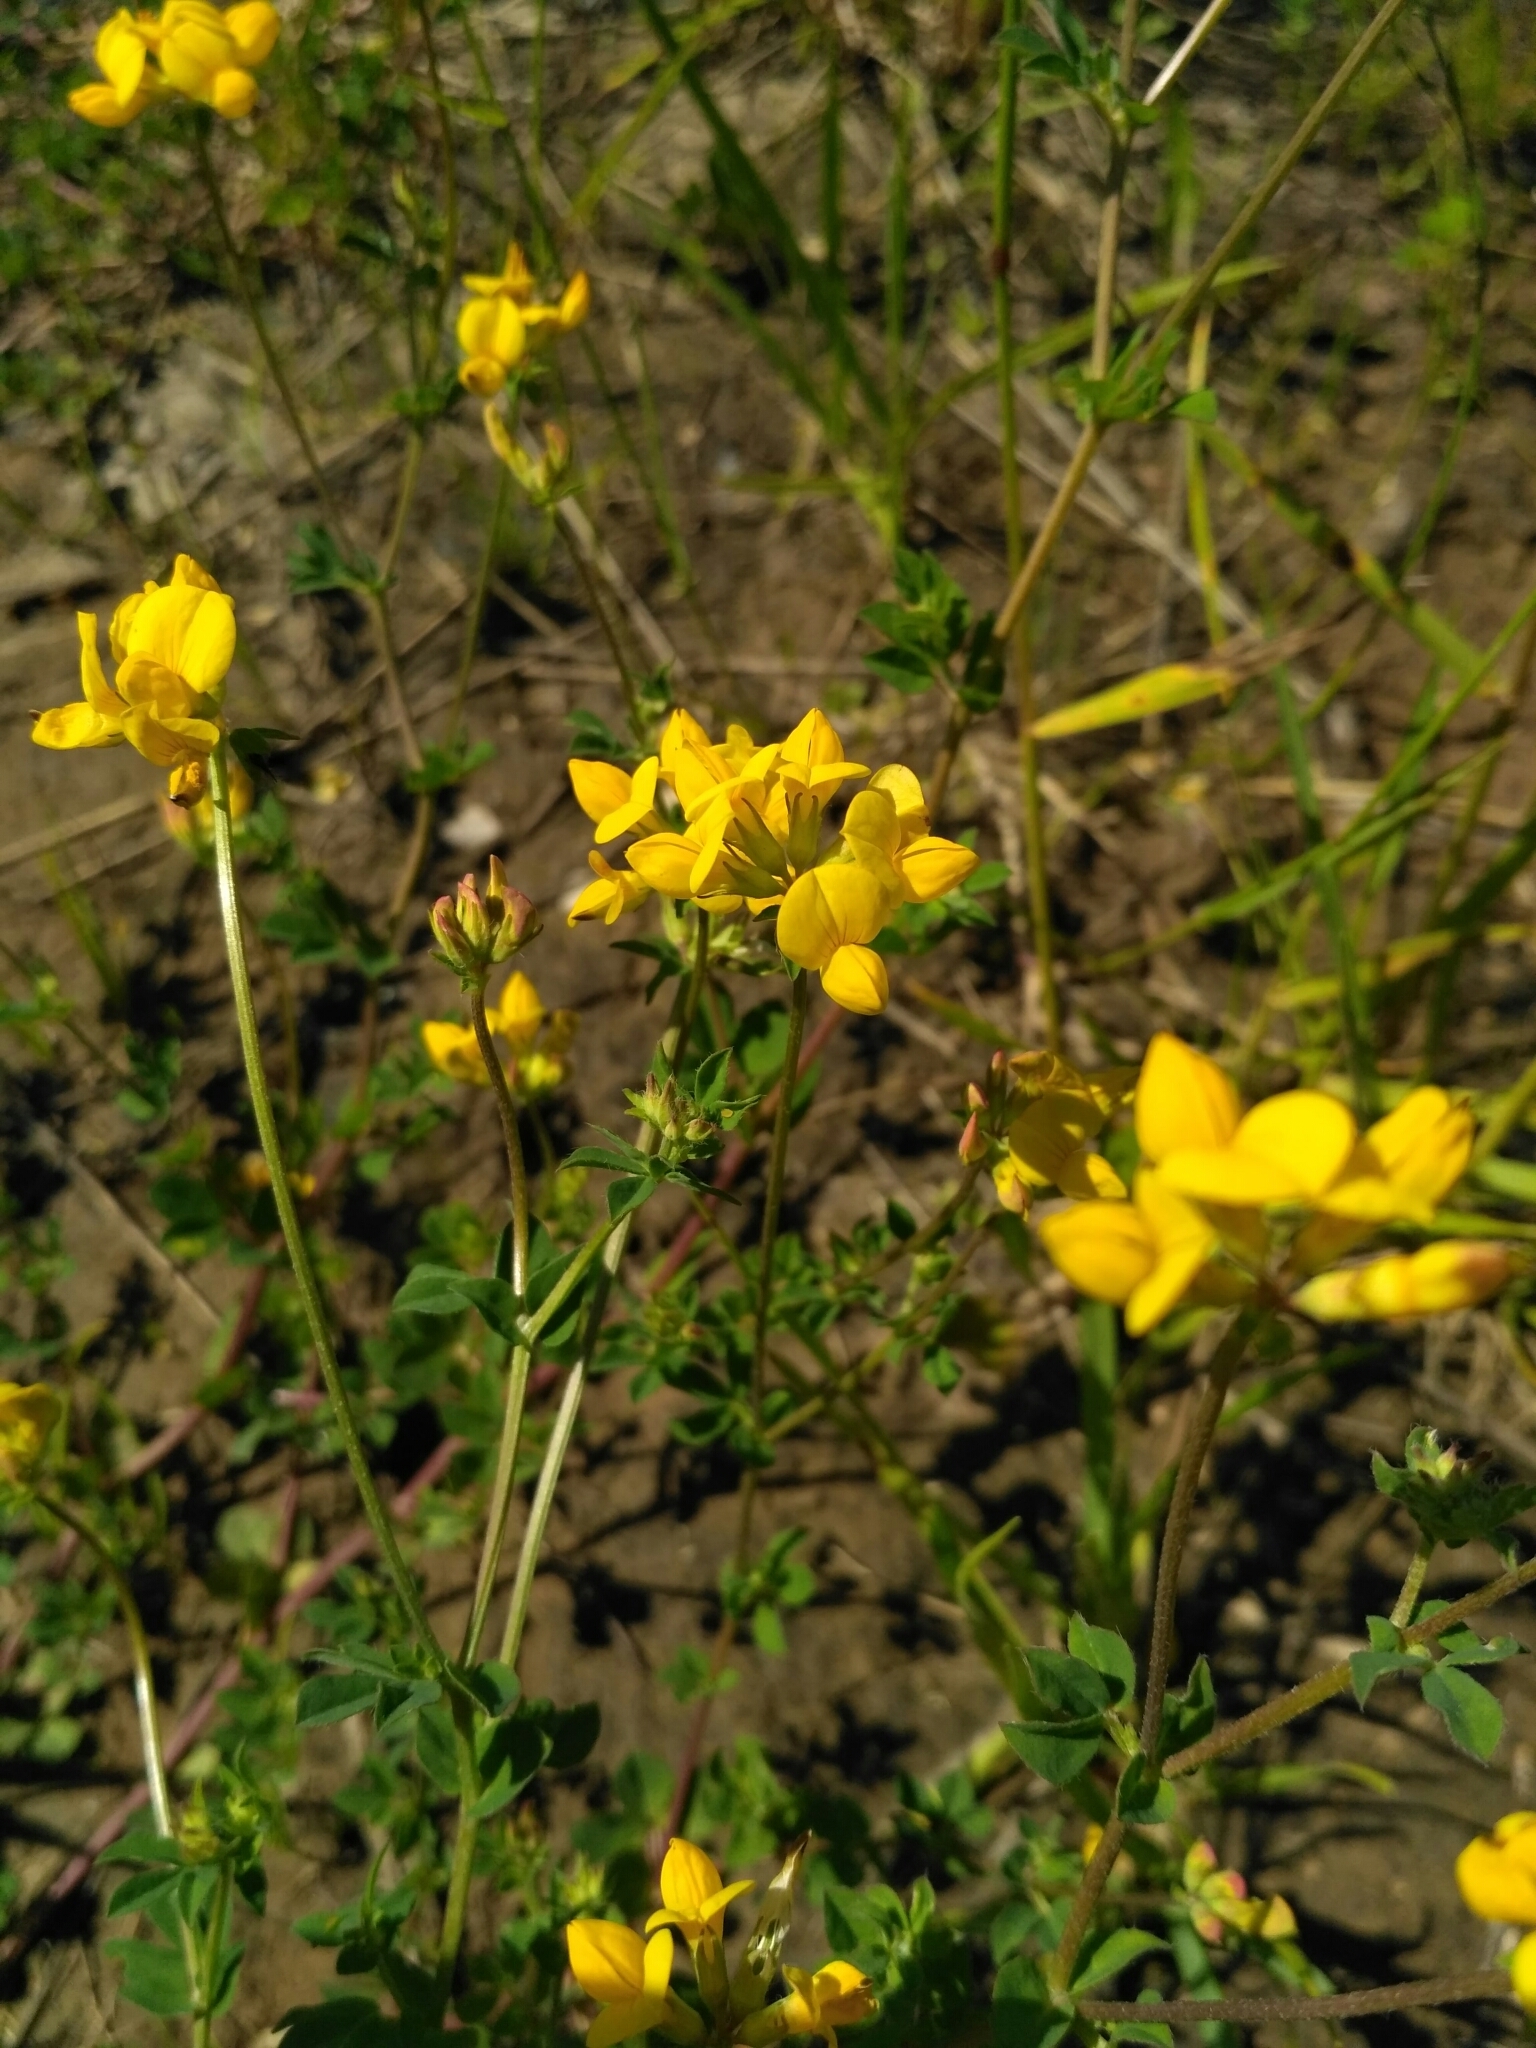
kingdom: Plantae
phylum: Tracheophyta
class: Magnoliopsida
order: Fabales
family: Fabaceae
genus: Lotus
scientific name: Lotus corniculatus
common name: Common bird's-foot-trefoil
